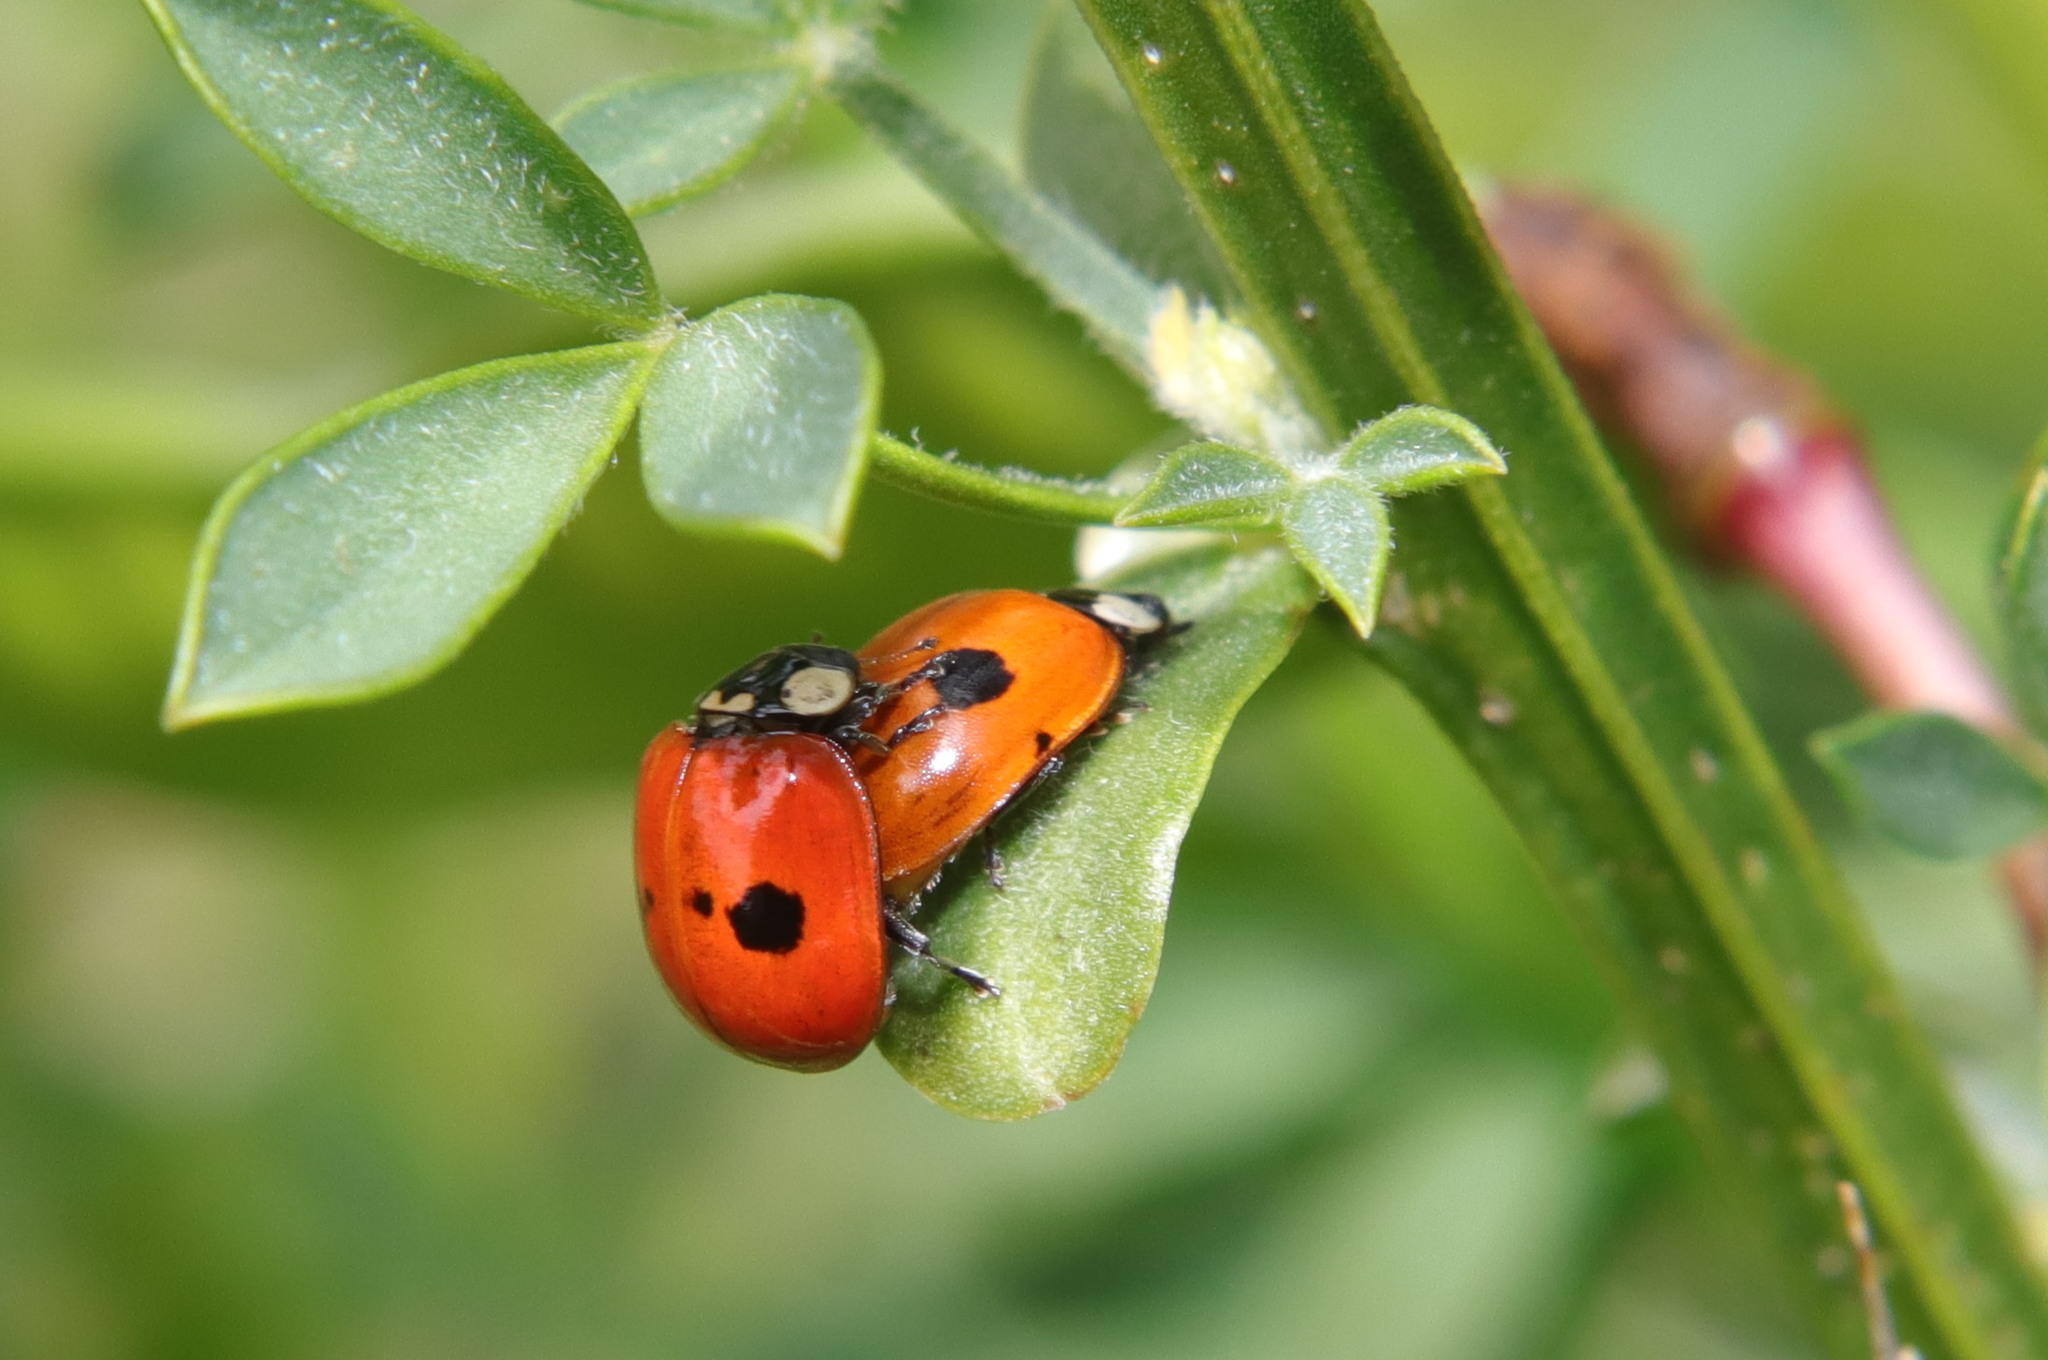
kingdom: Animalia
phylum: Arthropoda
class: Insecta
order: Coleoptera
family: Coccinellidae
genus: Adalia
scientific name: Adalia bipunctata
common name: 2-spot ladybird
